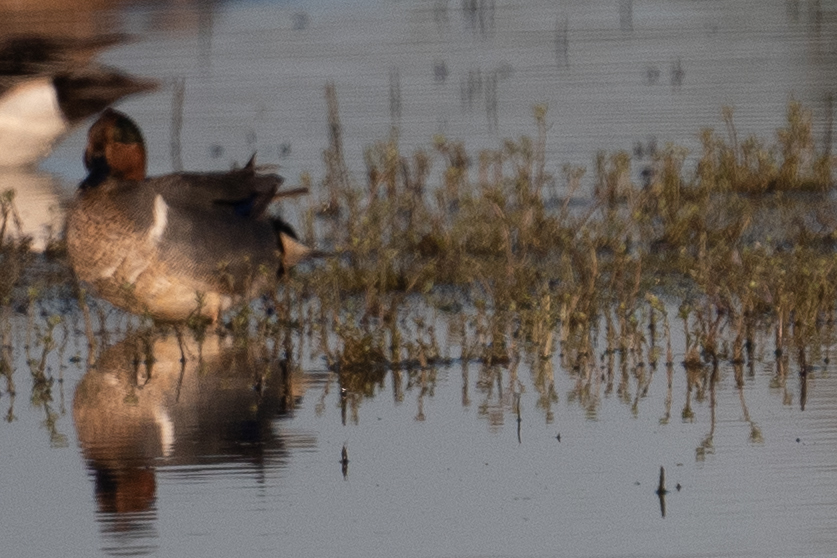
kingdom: Animalia
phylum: Chordata
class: Aves
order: Anseriformes
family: Anatidae
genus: Anas
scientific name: Anas crecca
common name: Eurasian teal
